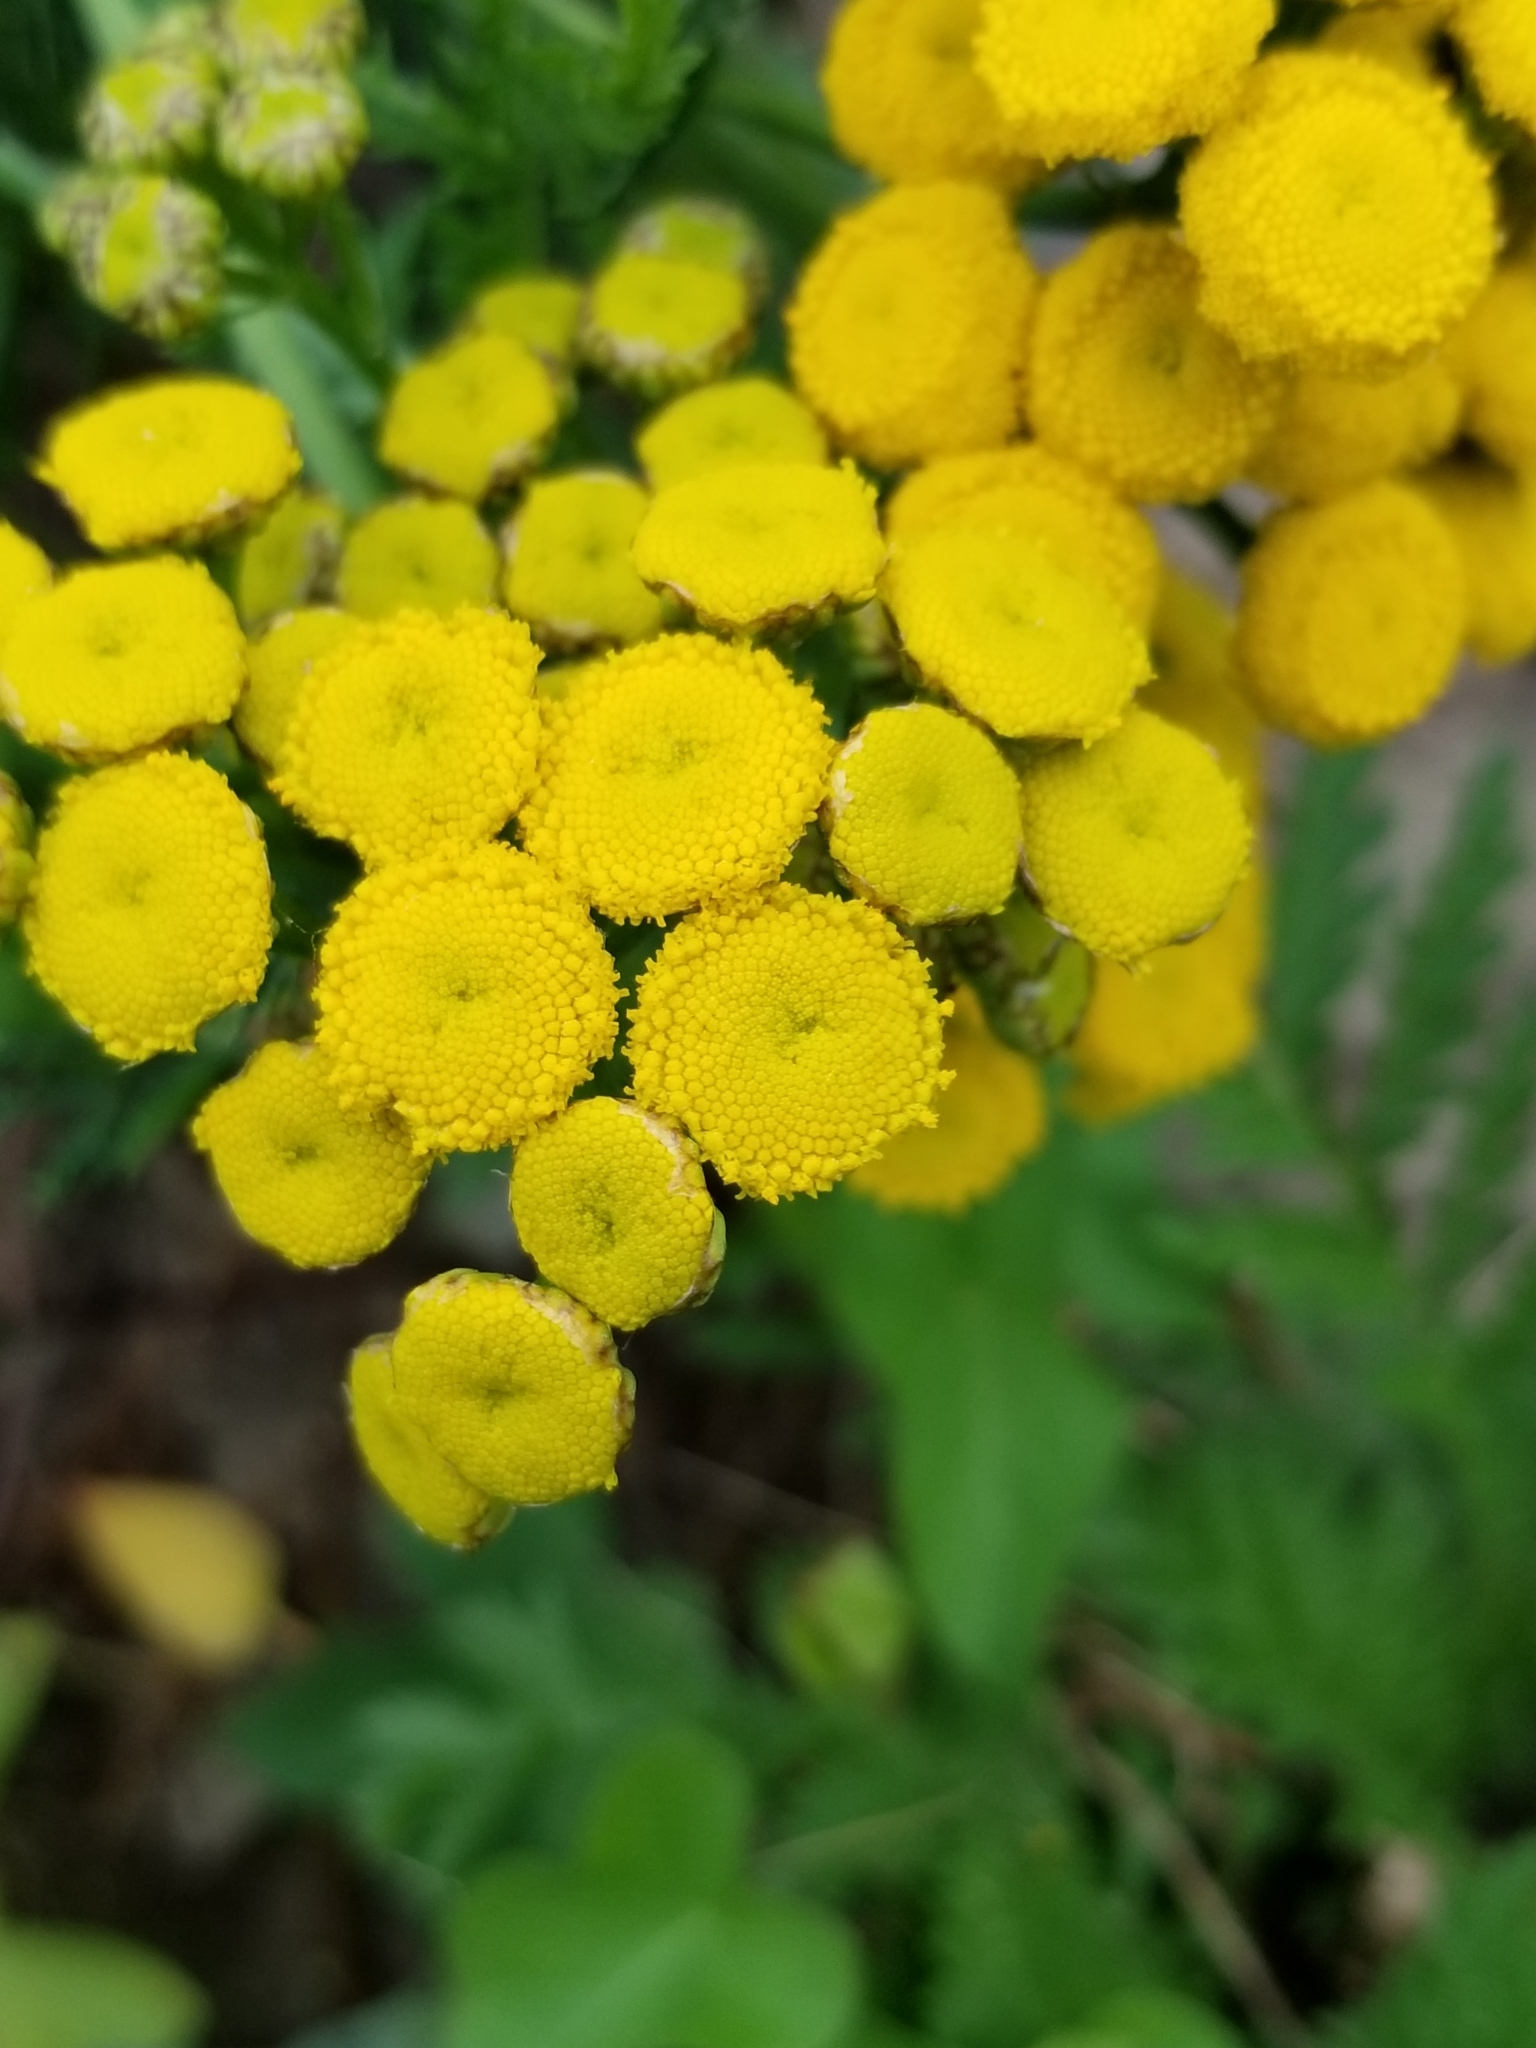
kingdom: Plantae
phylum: Tracheophyta
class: Magnoliopsida
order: Asterales
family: Asteraceae
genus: Tanacetum
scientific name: Tanacetum vulgare
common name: Common tansy
